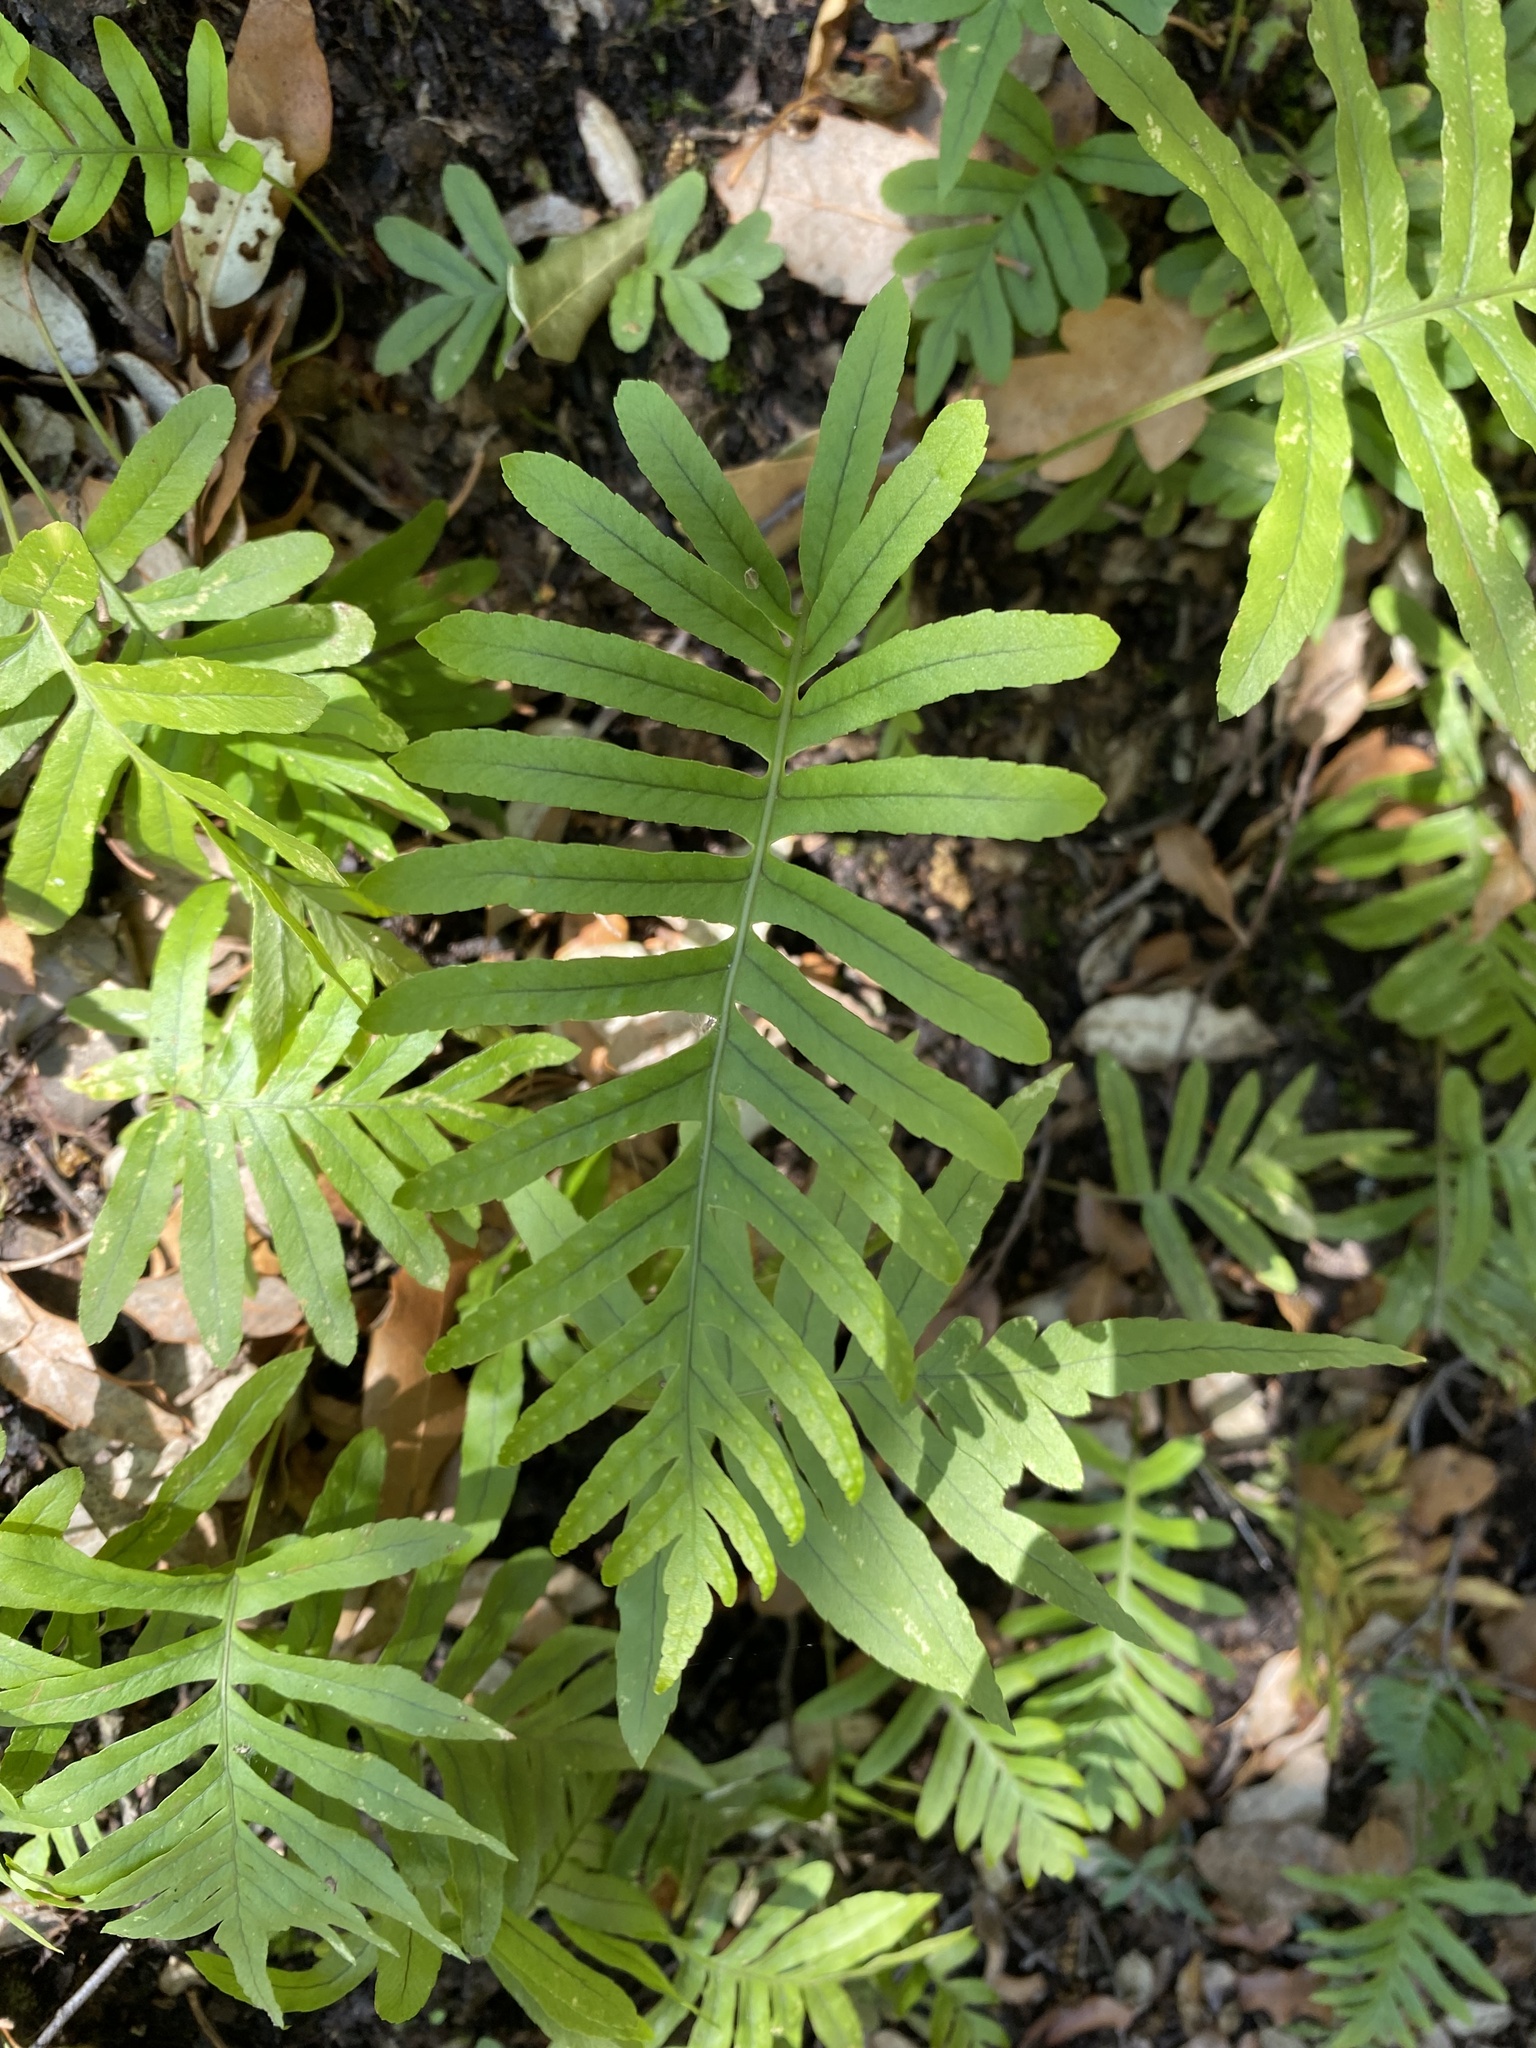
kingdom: Plantae
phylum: Tracheophyta
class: Polypodiopsida
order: Polypodiales
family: Polypodiaceae
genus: Polypodium
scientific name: Polypodium cambricum
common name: Southern polypody
